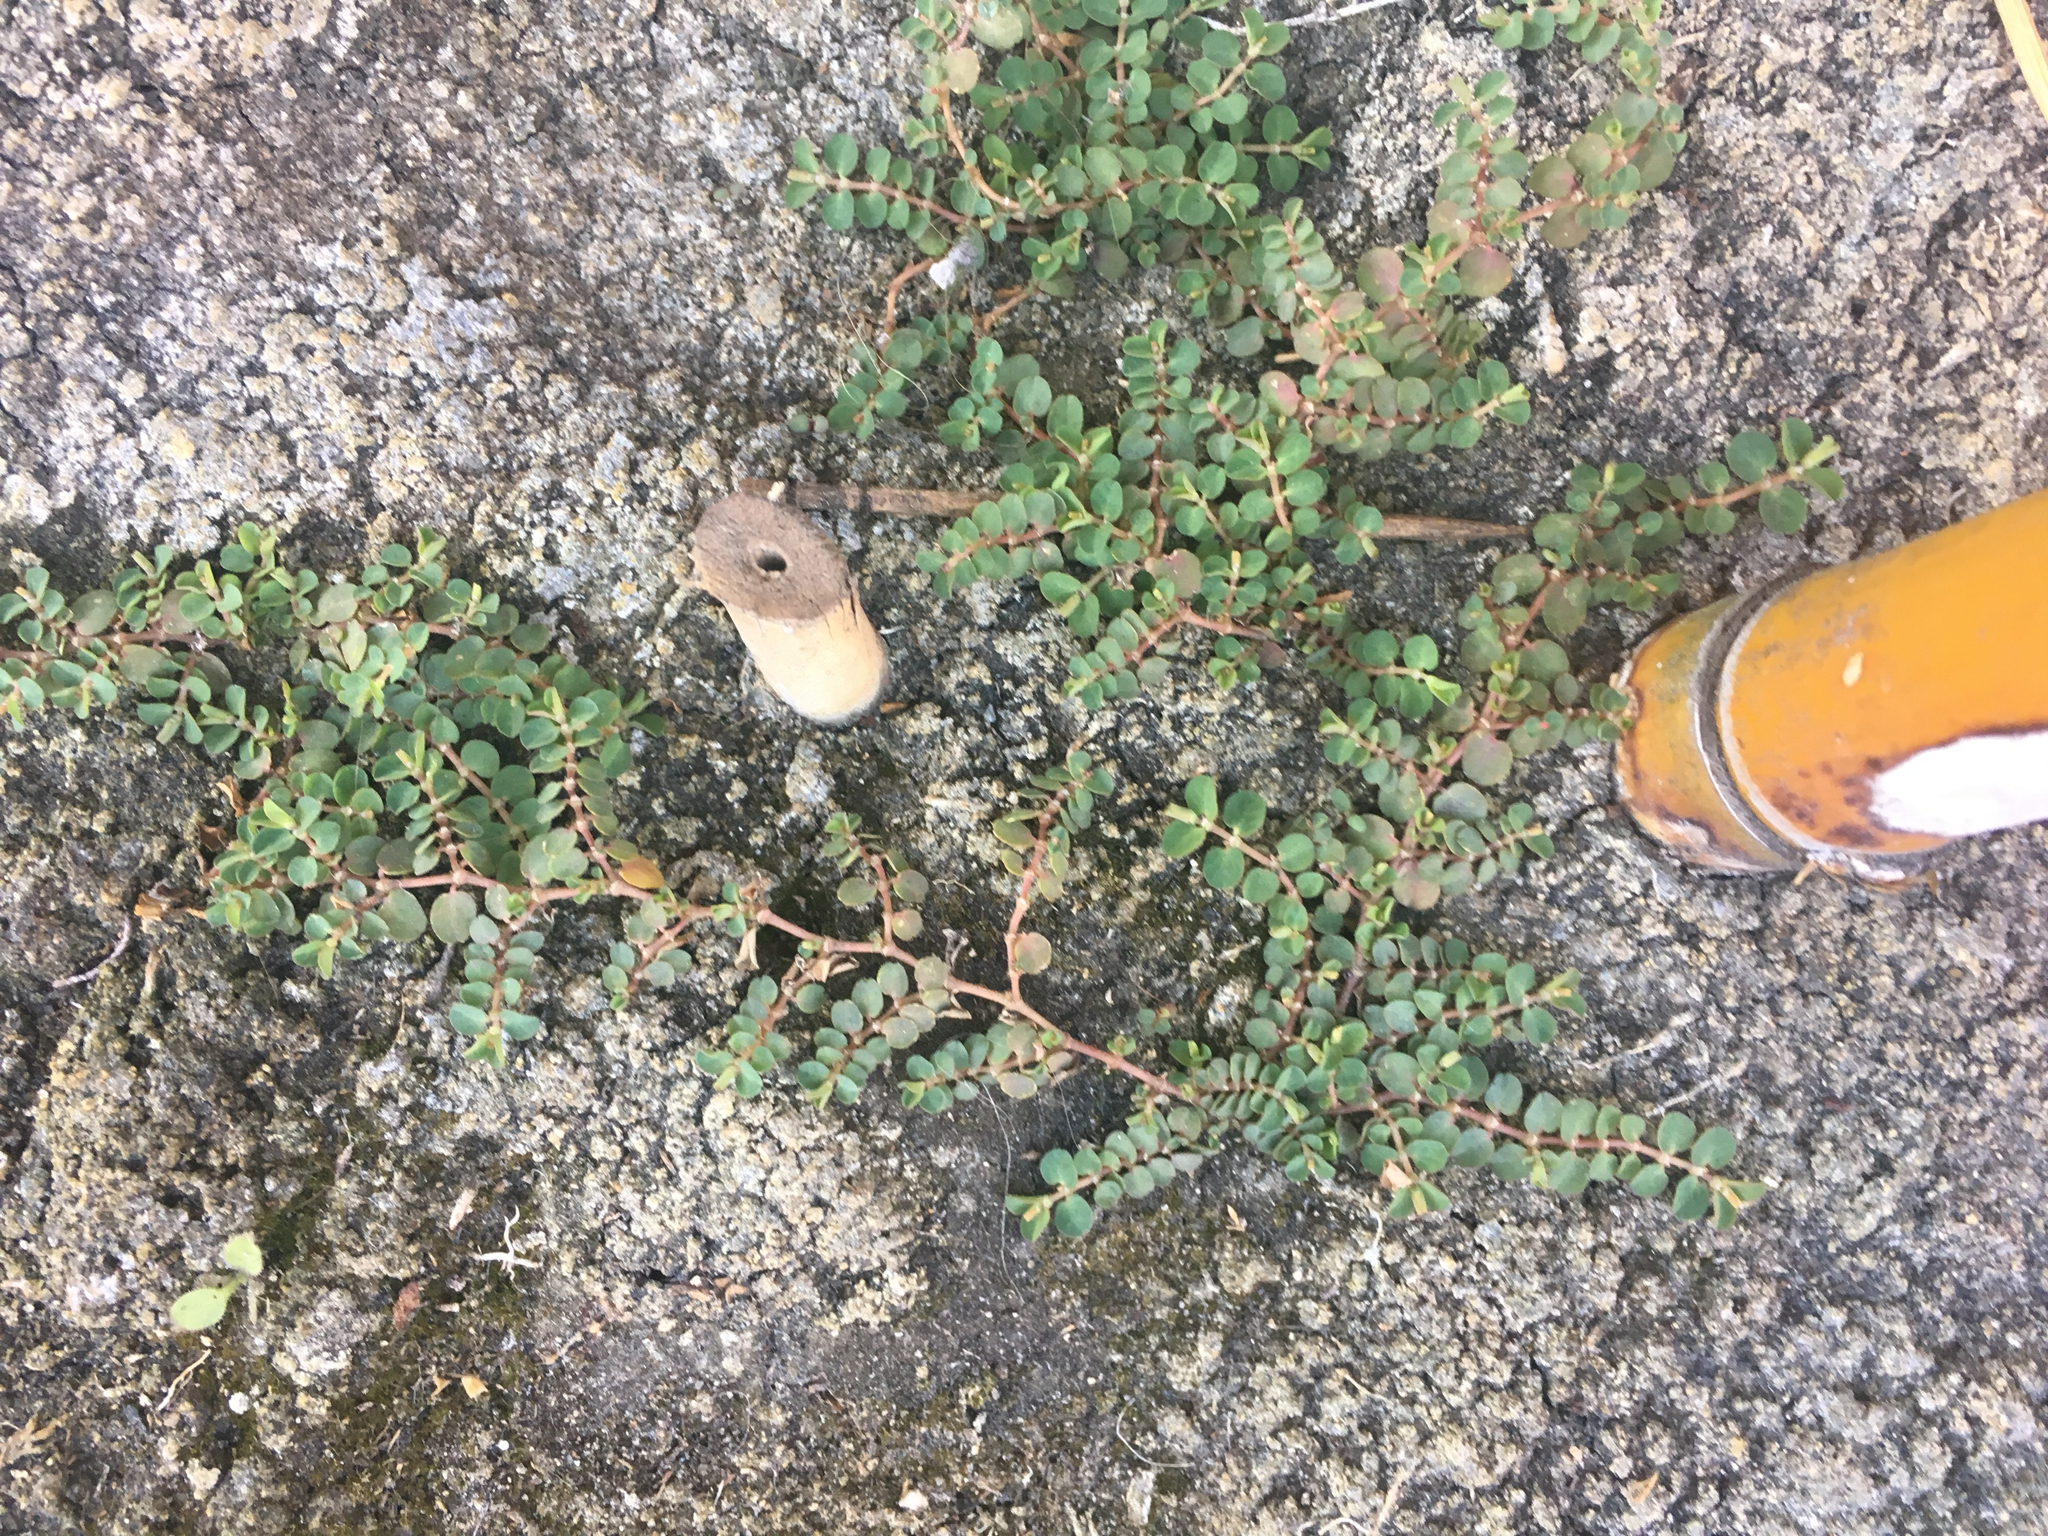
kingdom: Plantae
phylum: Tracheophyta
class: Magnoliopsida
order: Malpighiales
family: Euphorbiaceae
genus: Euphorbia
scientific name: Euphorbia serpens
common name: Matted sandmat
